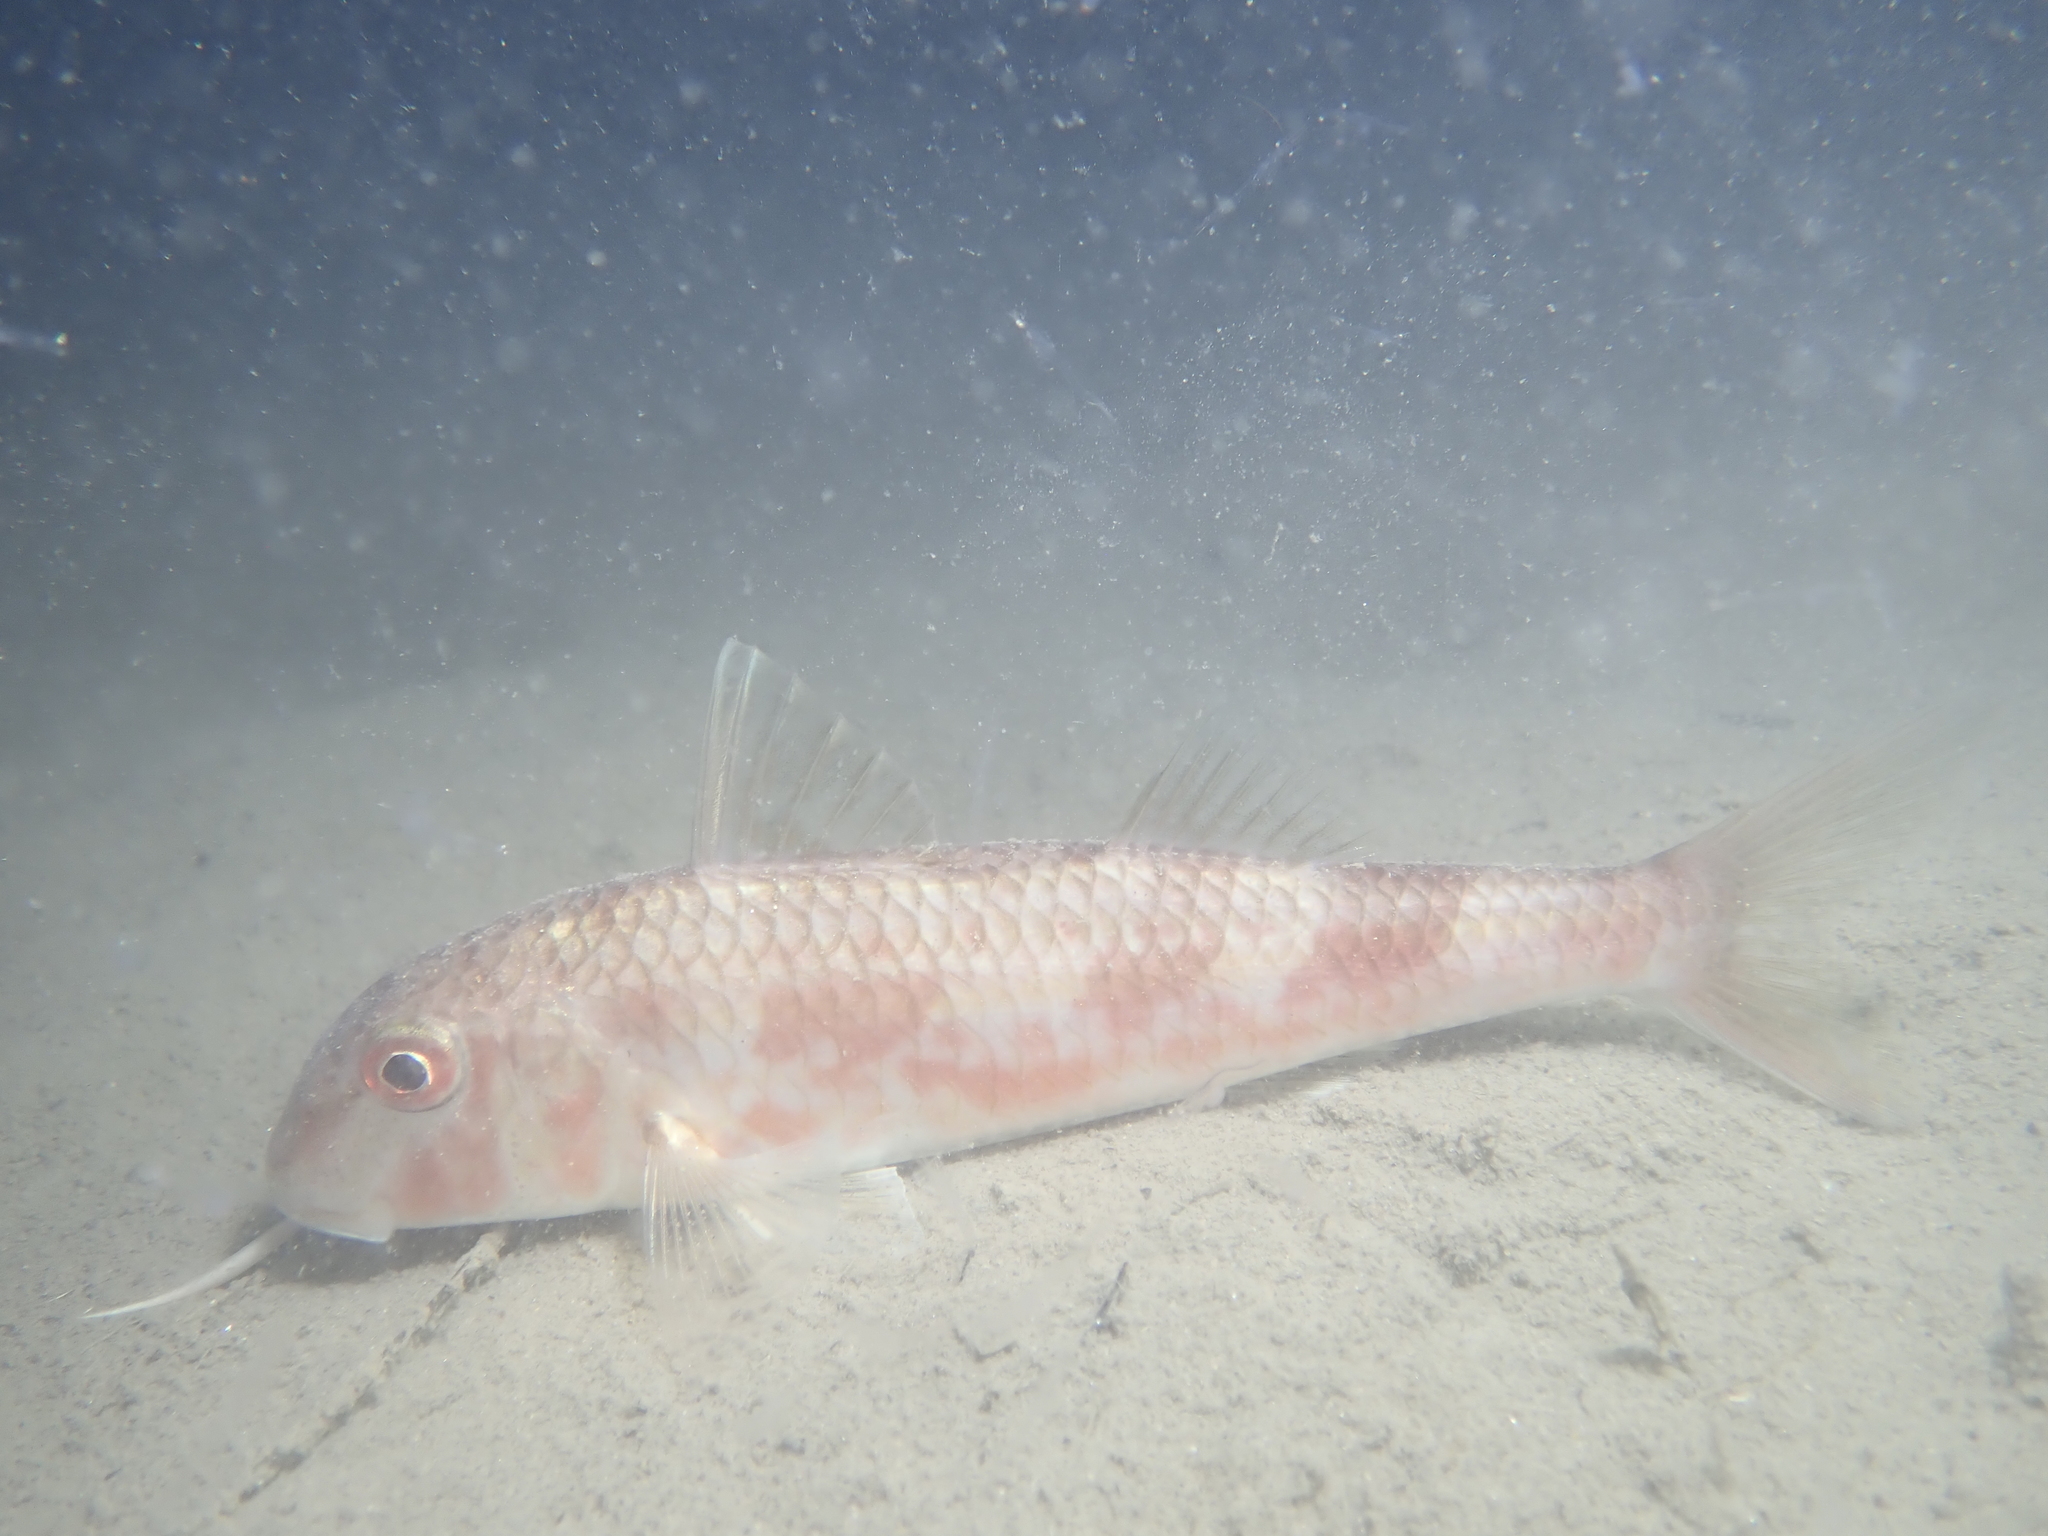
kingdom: Animalia
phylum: Chordata
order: Perciformes
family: Mullidae
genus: Mullus
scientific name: Mullus barbatus
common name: Blunt-snouted mullet
